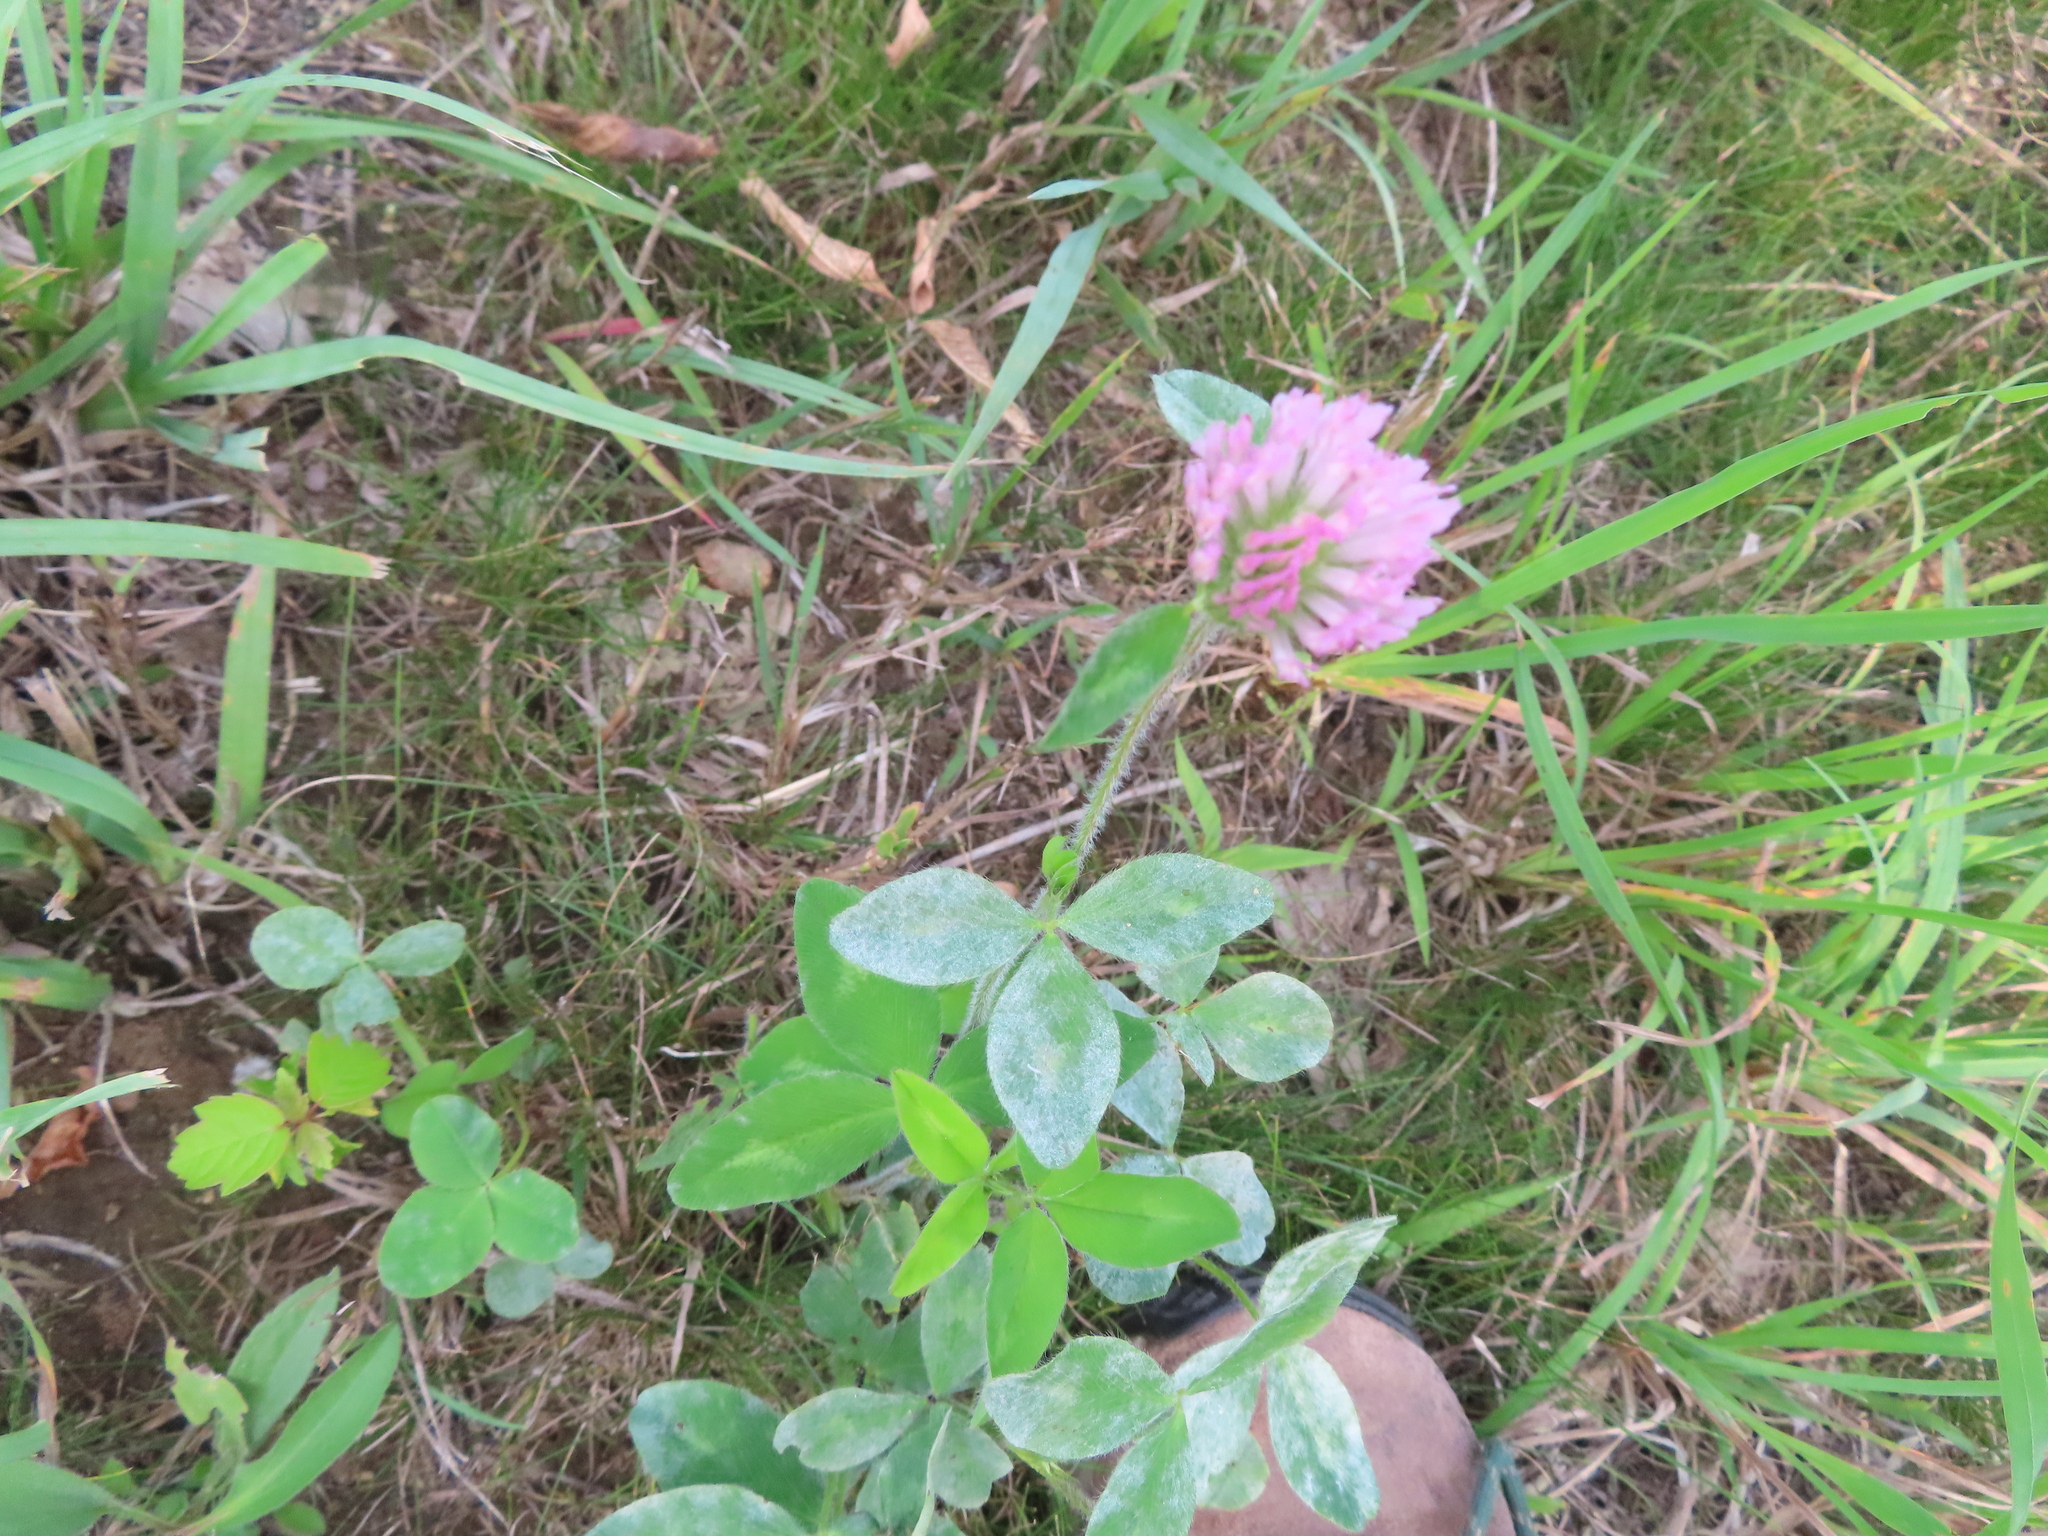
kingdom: Plantae
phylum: Tracheophyta
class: Magnoliopsida
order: Fabales
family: Fabaceae
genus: Trifolium
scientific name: Trifolium pratense
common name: Red clover
